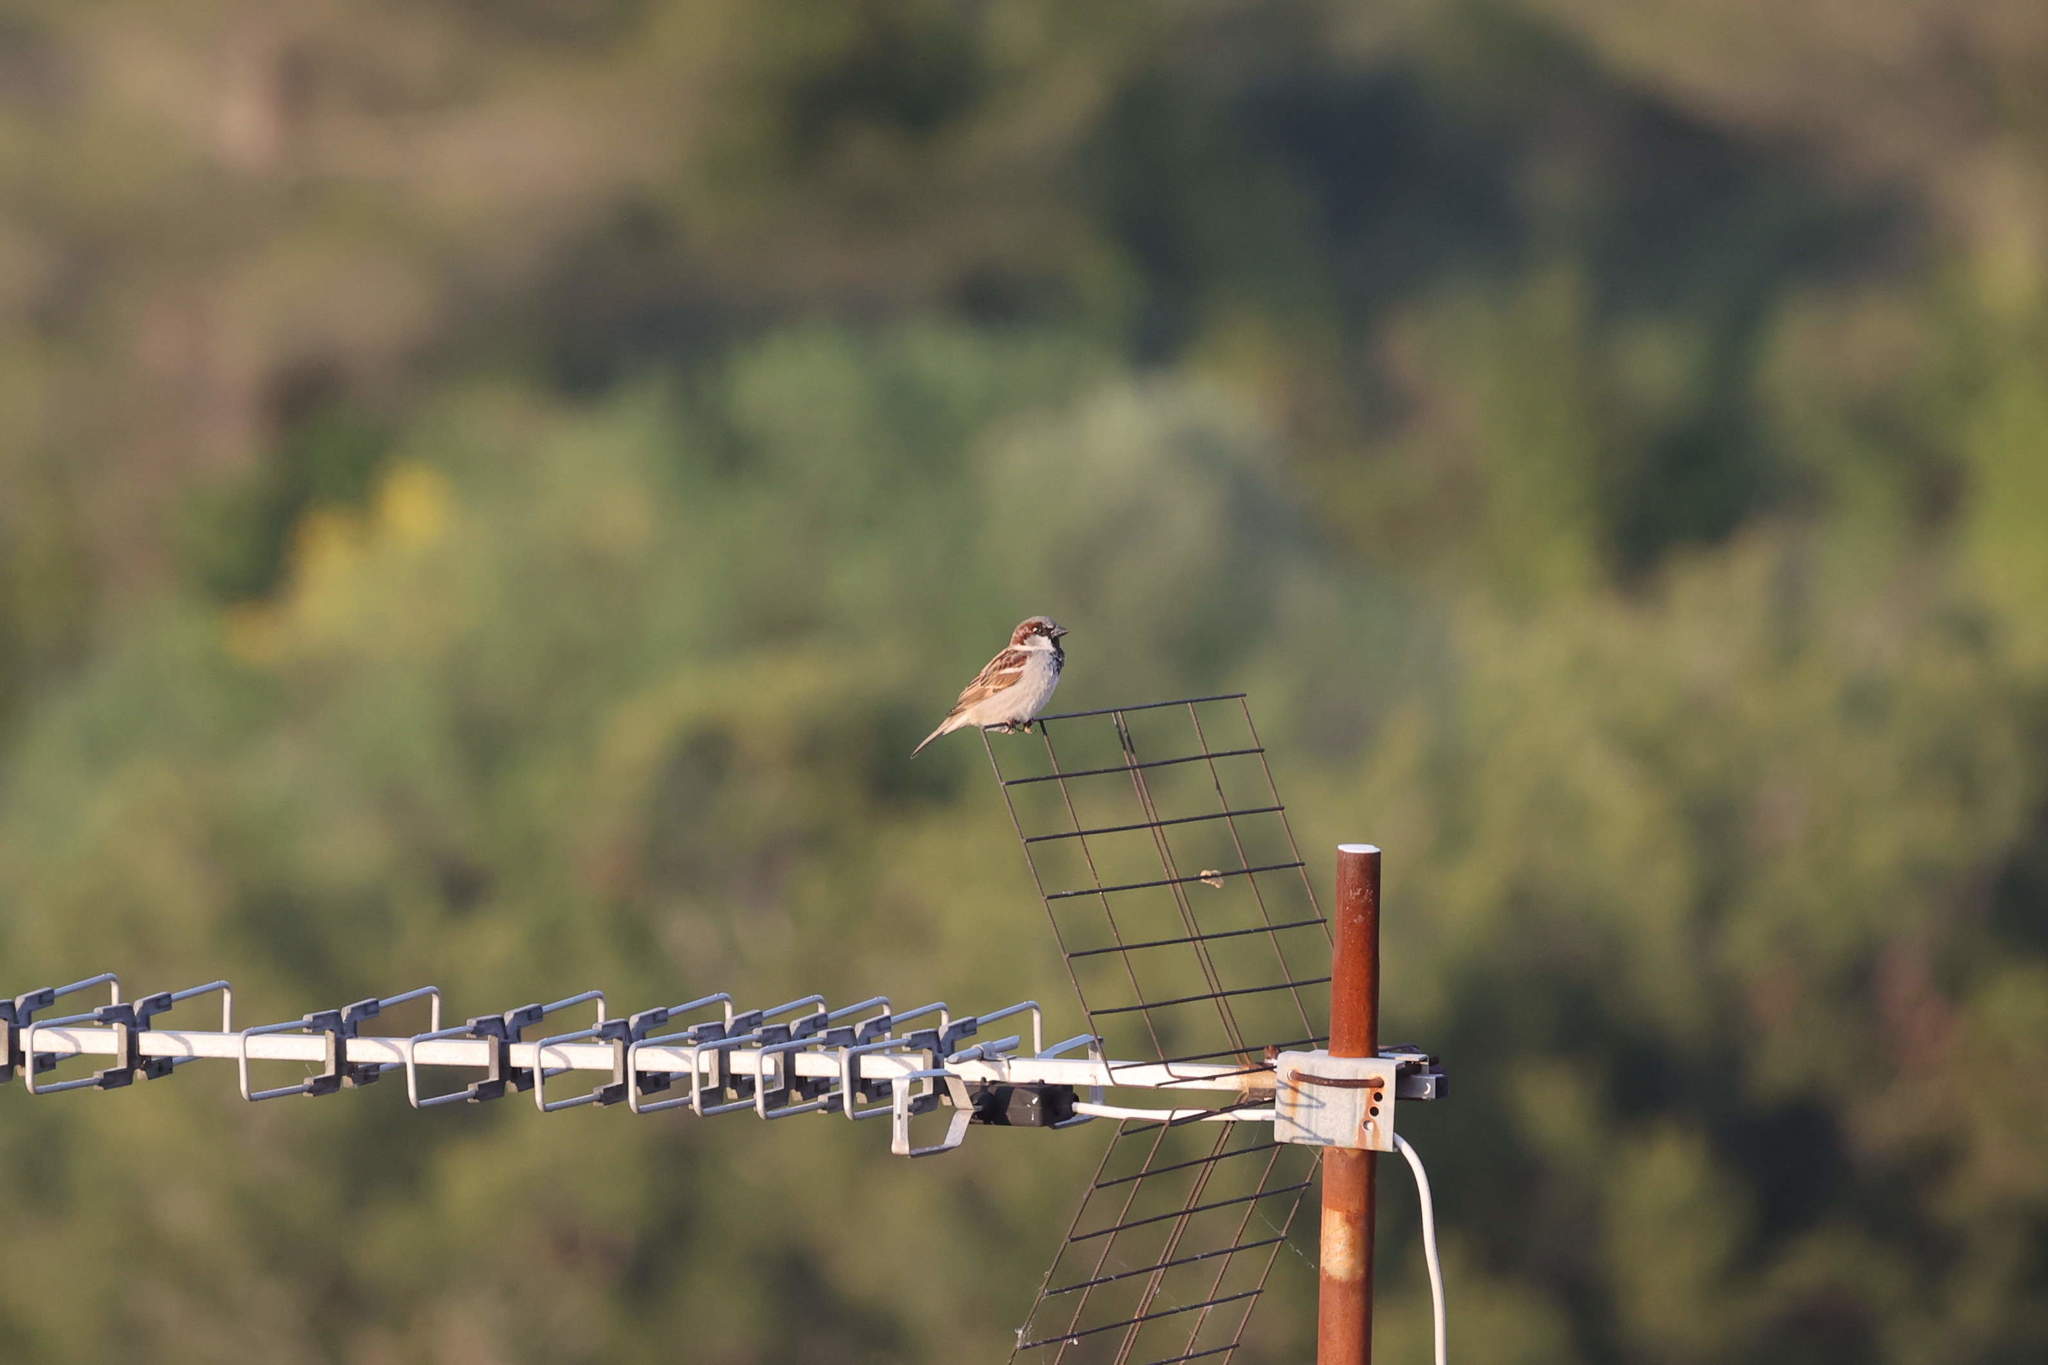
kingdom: Animalia
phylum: Chordata
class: Aves
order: Passeriformes
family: Passeridae
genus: Passer
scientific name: Passer domesticus
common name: House sparrow
